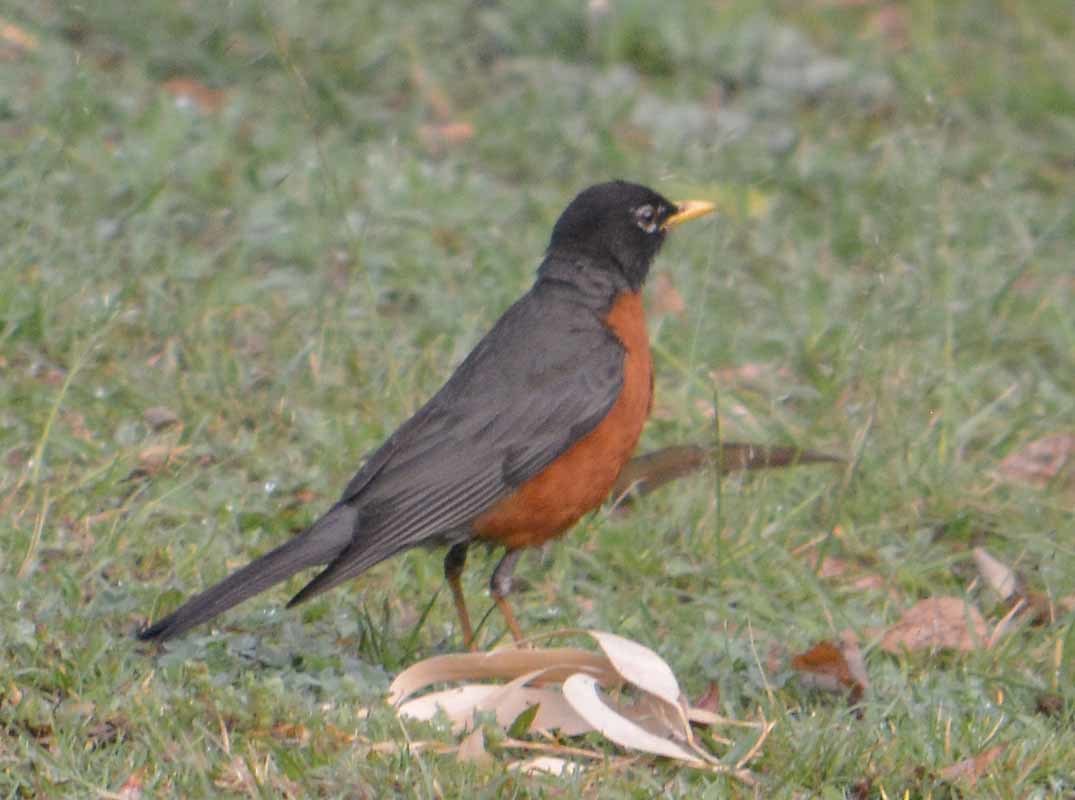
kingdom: Animalia
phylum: Chordata
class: Aves
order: Passeriformes
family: Turdidae
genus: Turdus
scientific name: Turdus migratorius
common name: American robin
